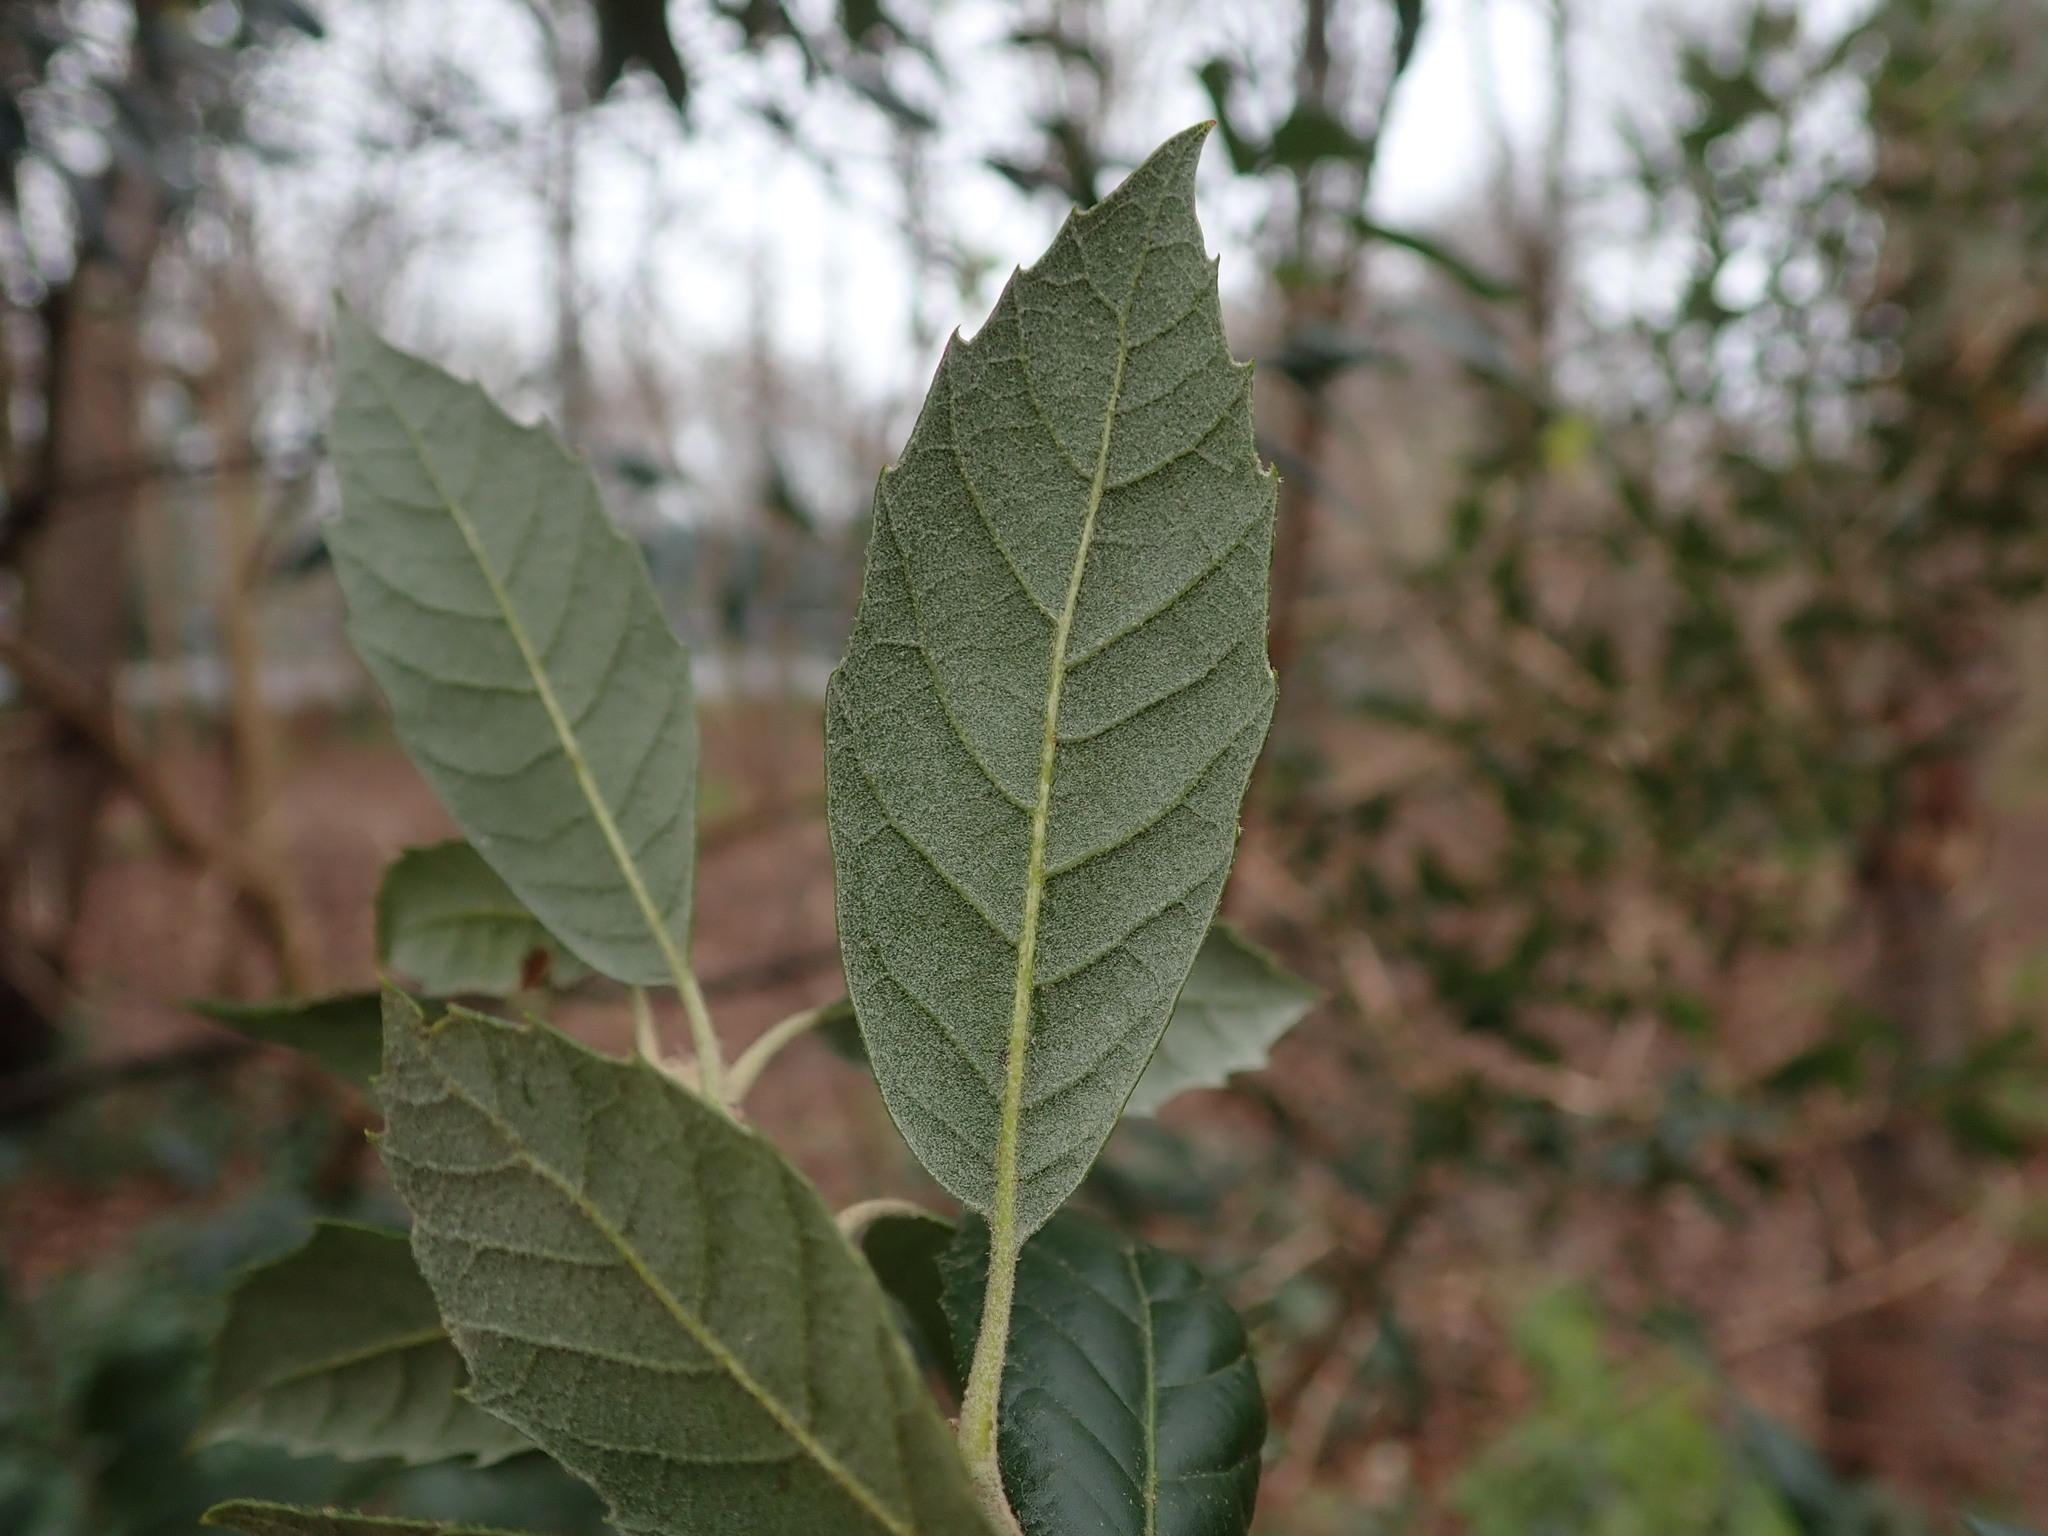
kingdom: Plantae
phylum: Tracheophyta
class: Magnoliopsida
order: Fagales
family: Fagaceae
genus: Quercus
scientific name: Quercus ilex
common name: Evergreen oak
